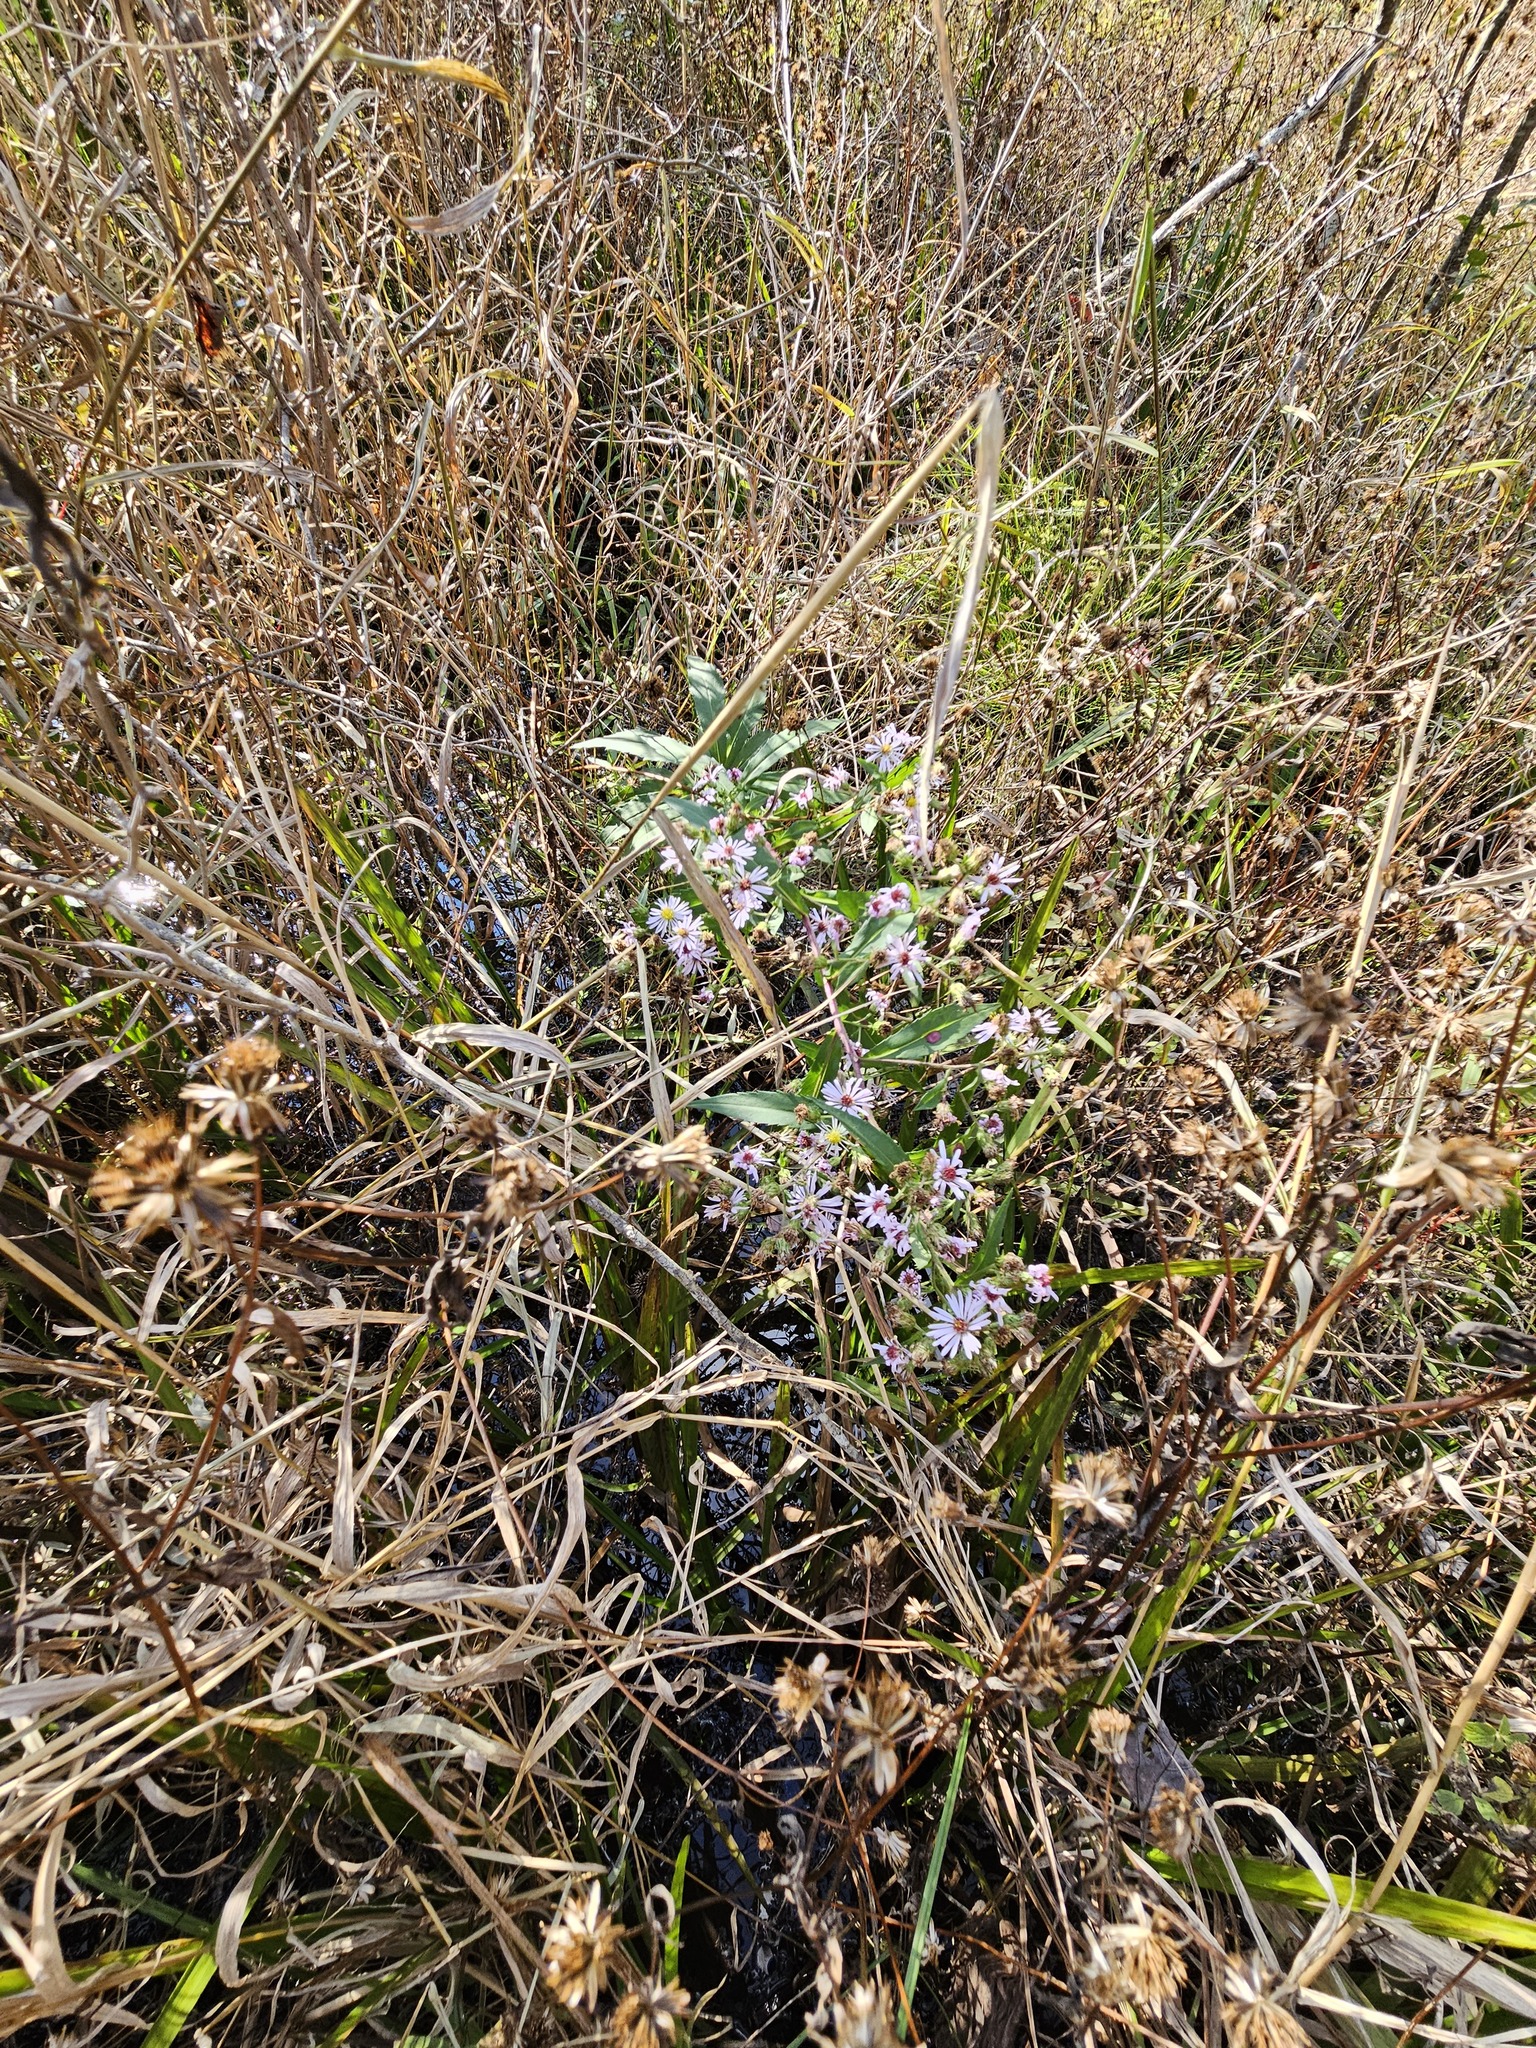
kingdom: Plantae
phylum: Tracheophyta
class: Magnoliopsida
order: Asterales
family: Asteraceae
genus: Symphyotrichum
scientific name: Symphyotrichum puniceum
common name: Bog aster
